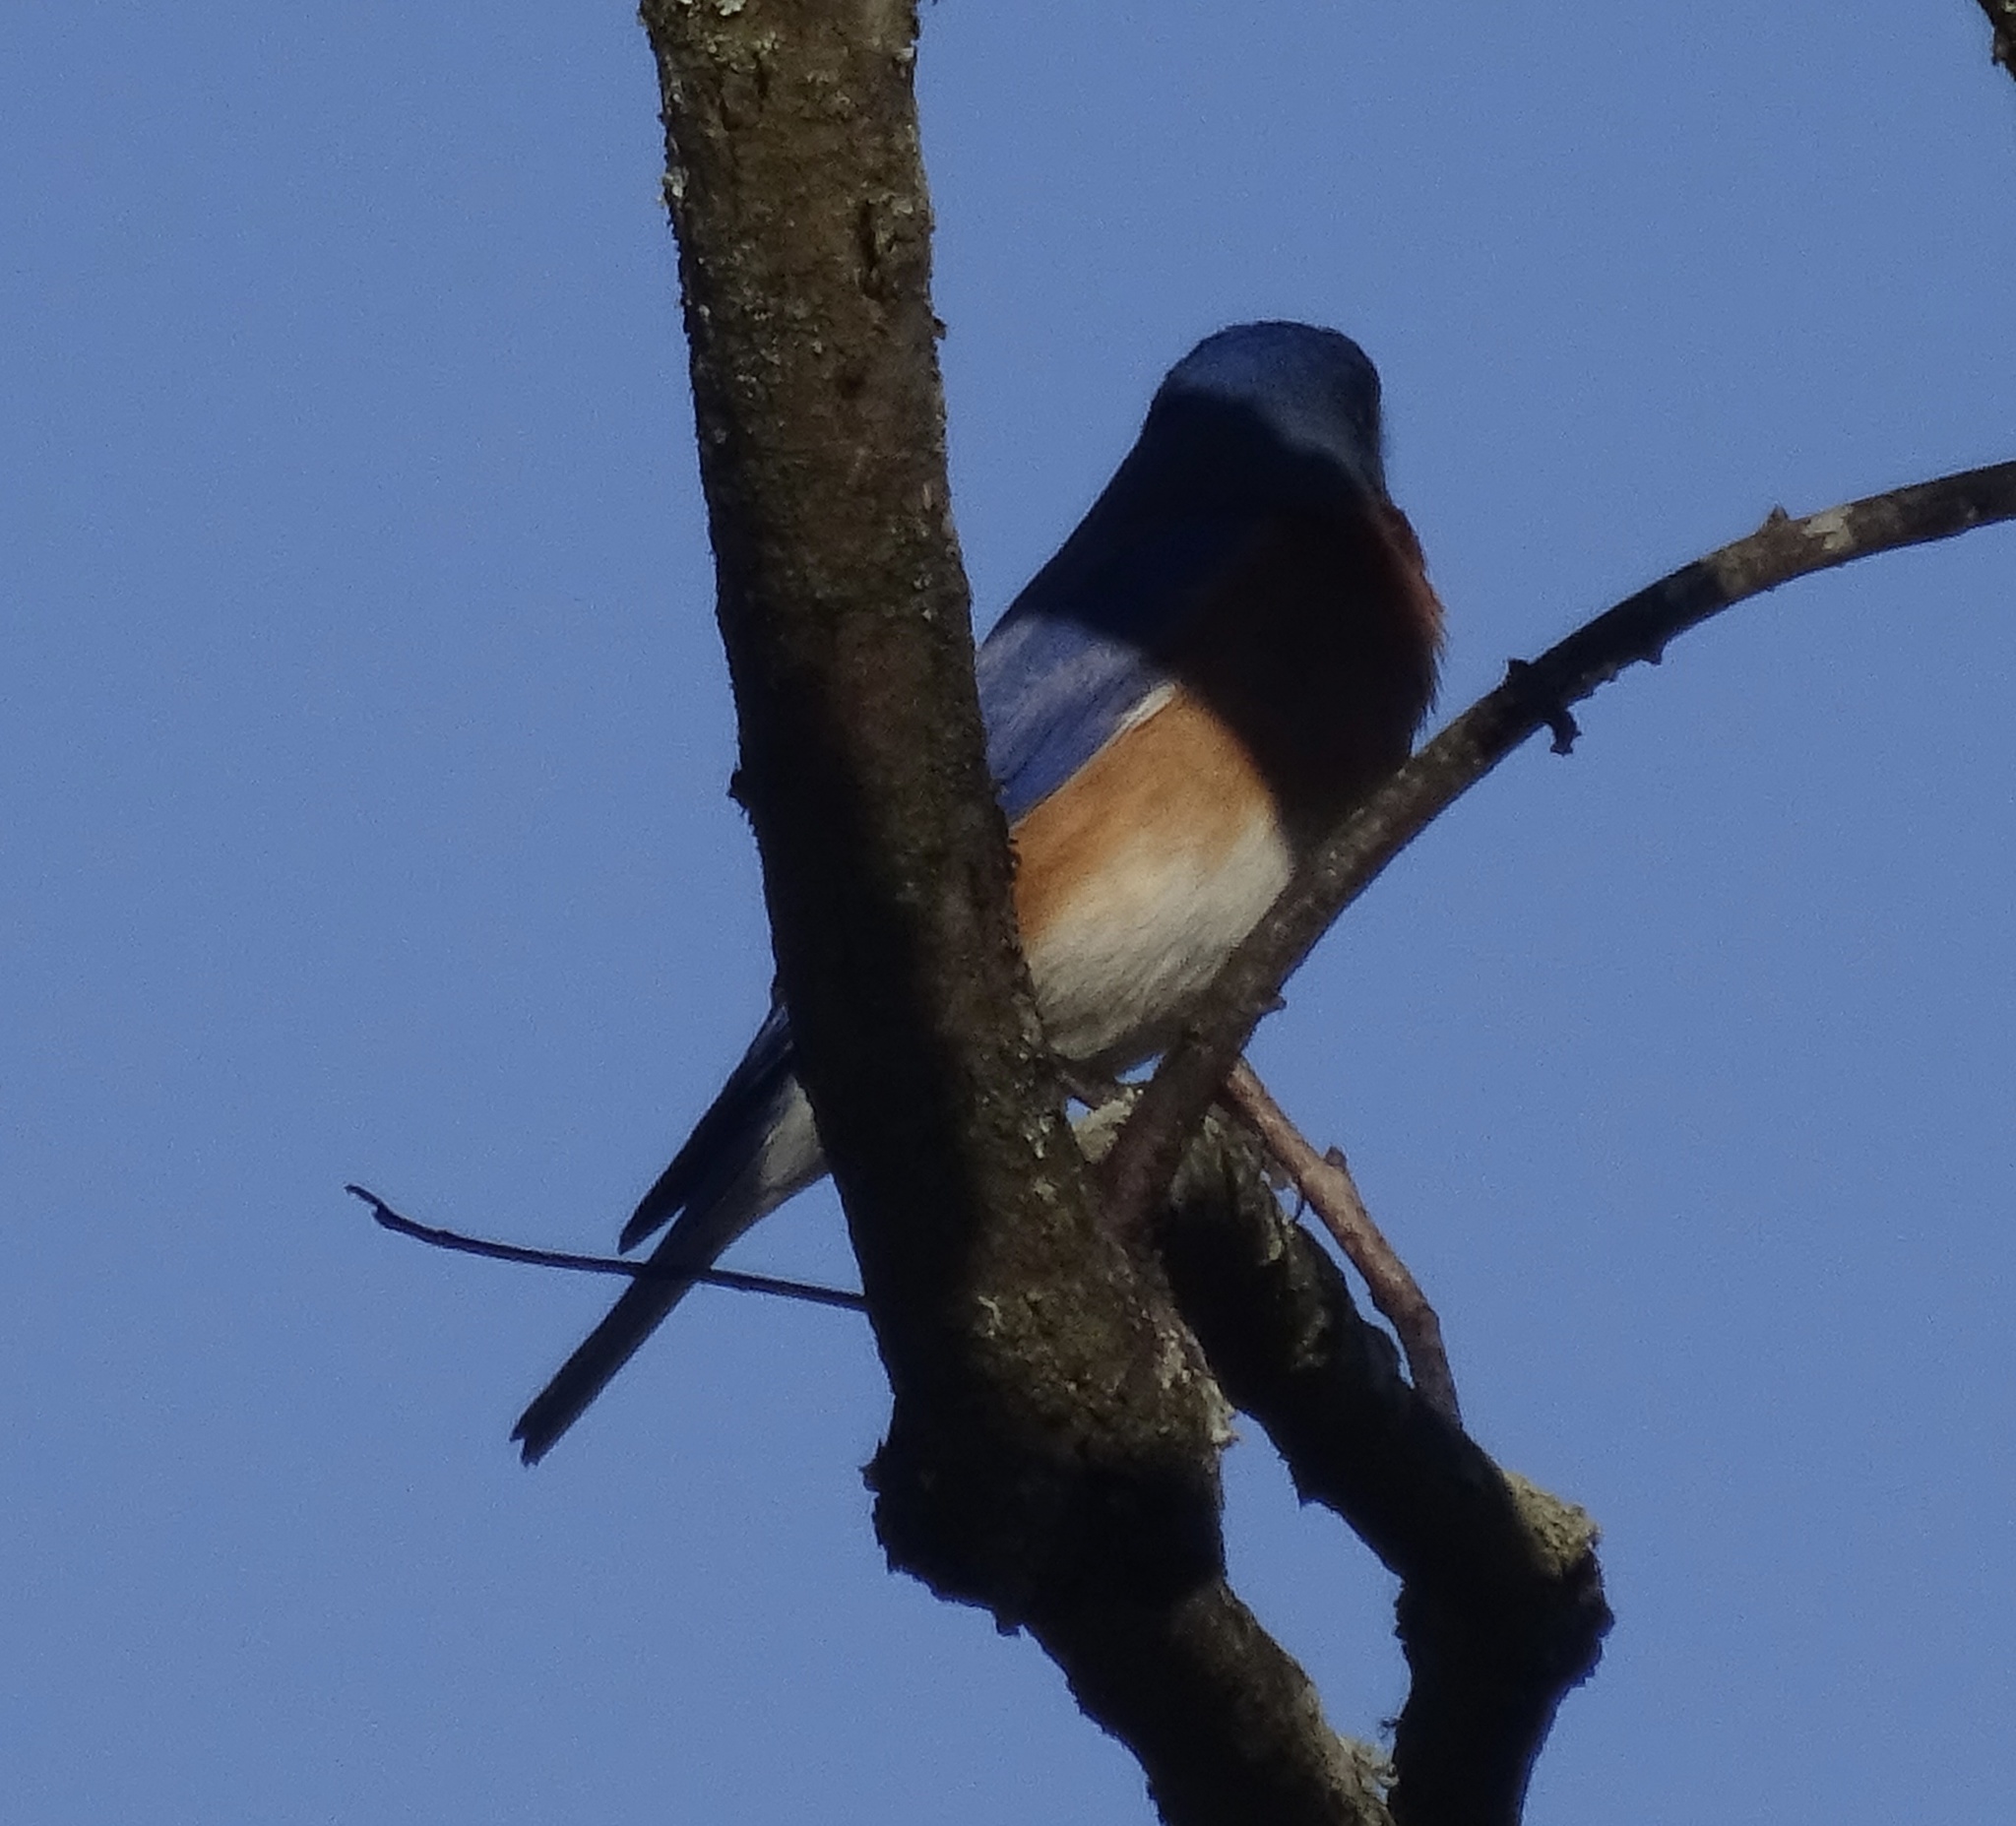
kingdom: Animalia
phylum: Chordata
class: Aves
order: Passeriformes
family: Turdidae
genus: Sialia
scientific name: Sialia sialis
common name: Eastern bluebird
